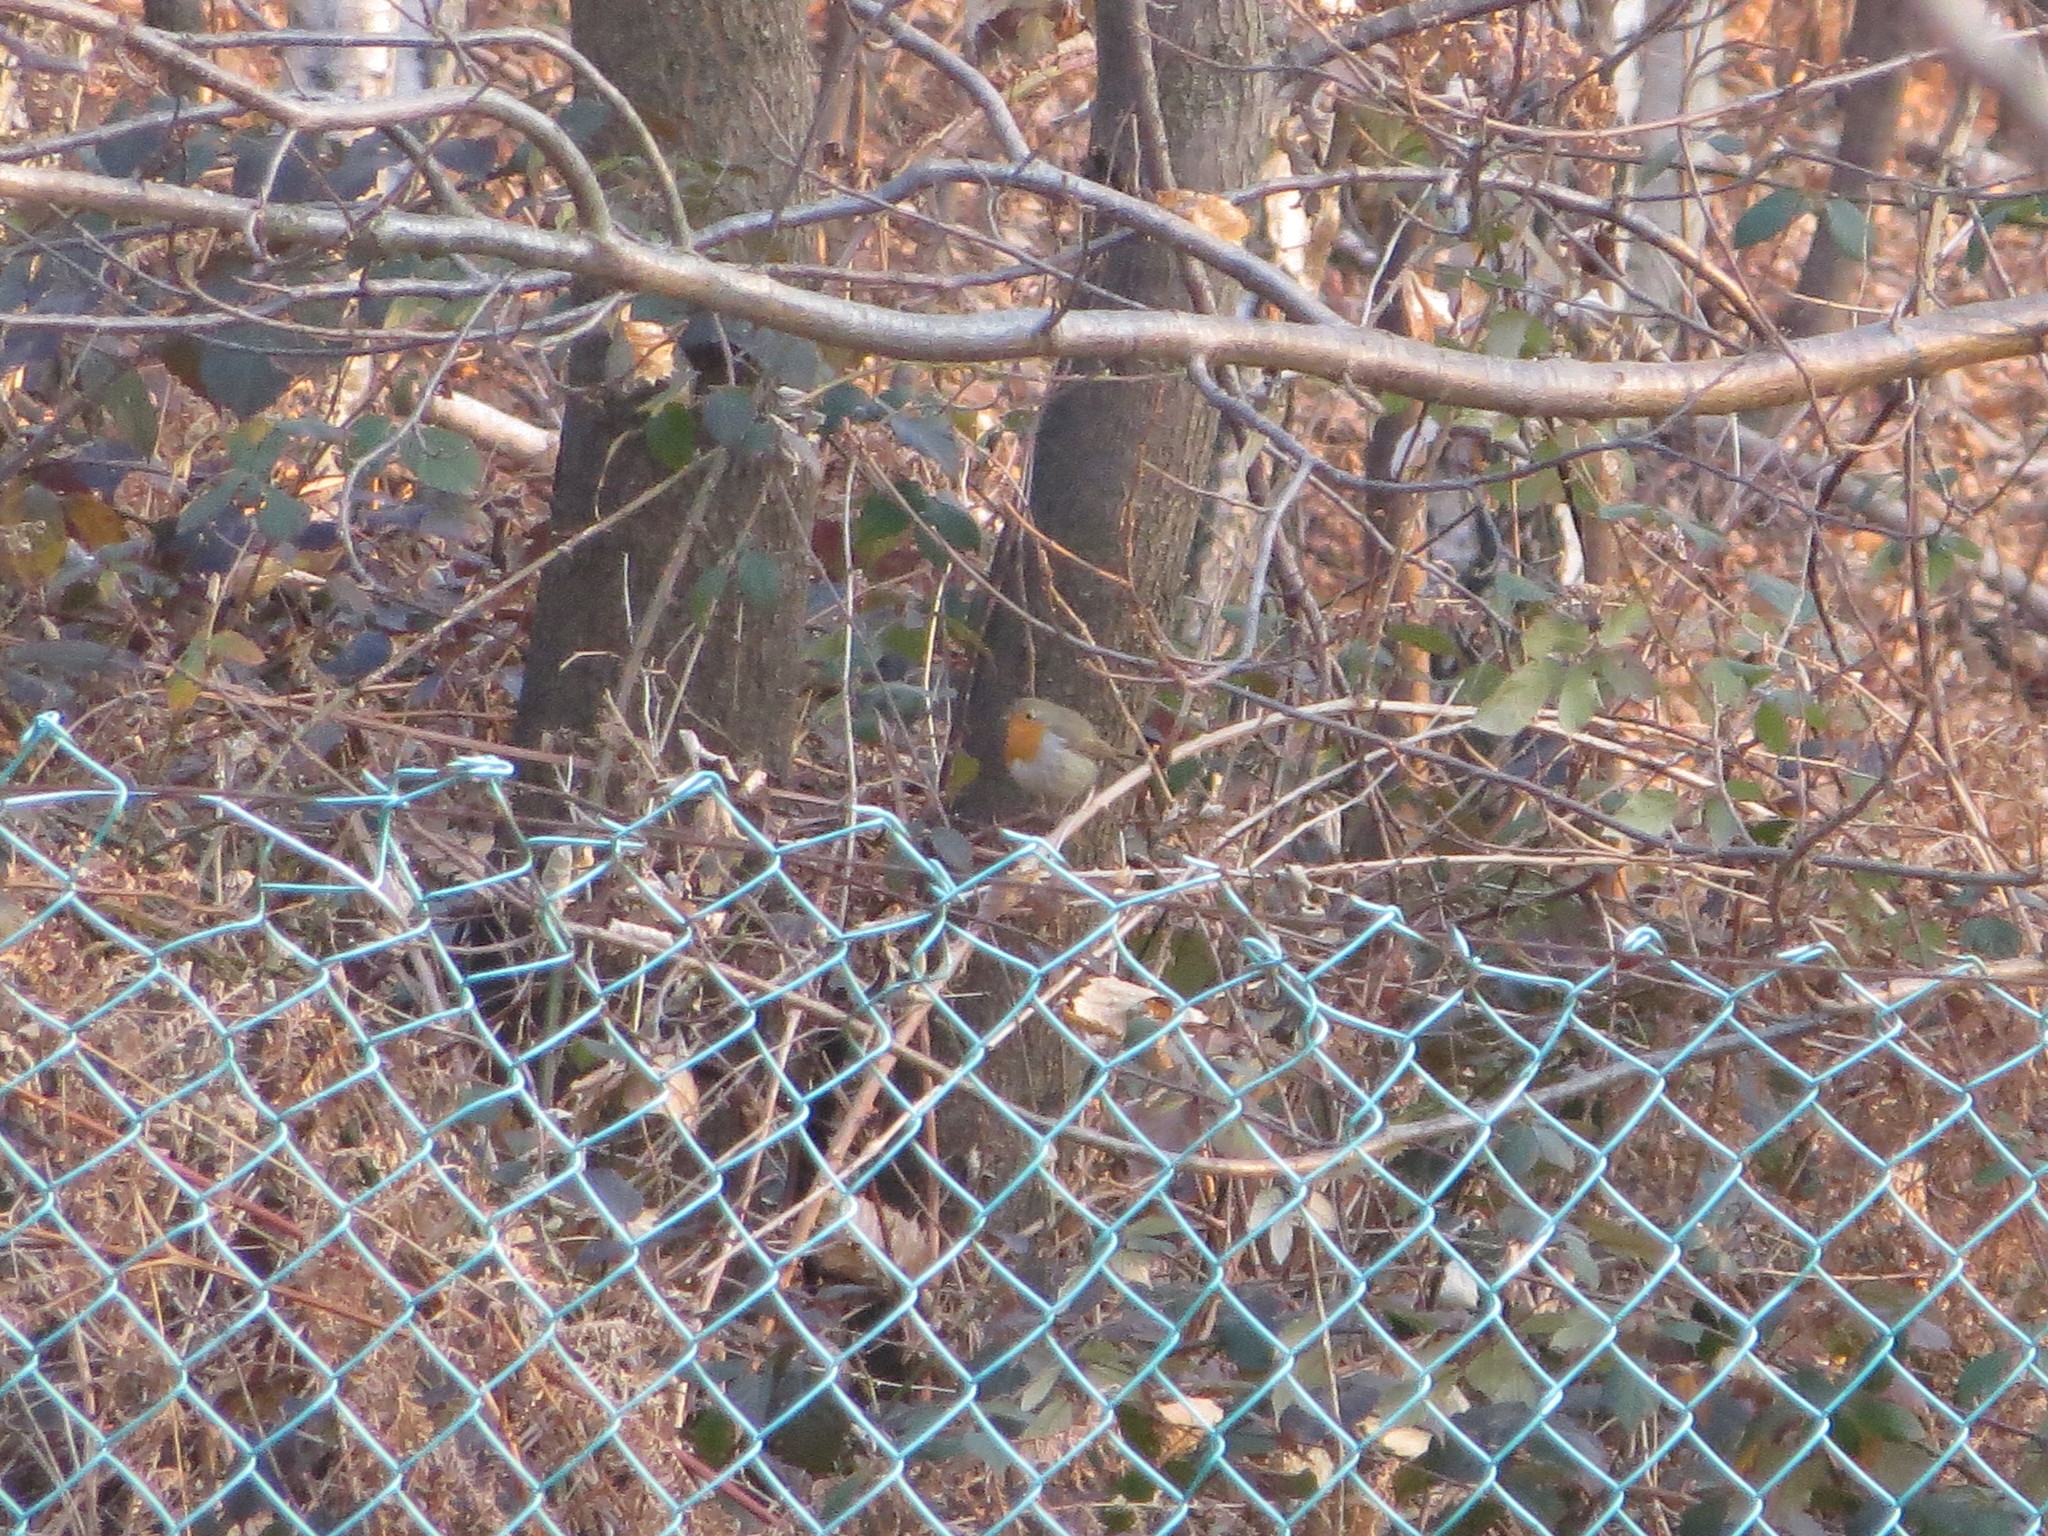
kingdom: Animalia
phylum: Chordata
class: Aves
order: Passeriformes
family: Muscicapidae
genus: Erithacus
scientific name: Erithacus rubecula
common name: European robin
